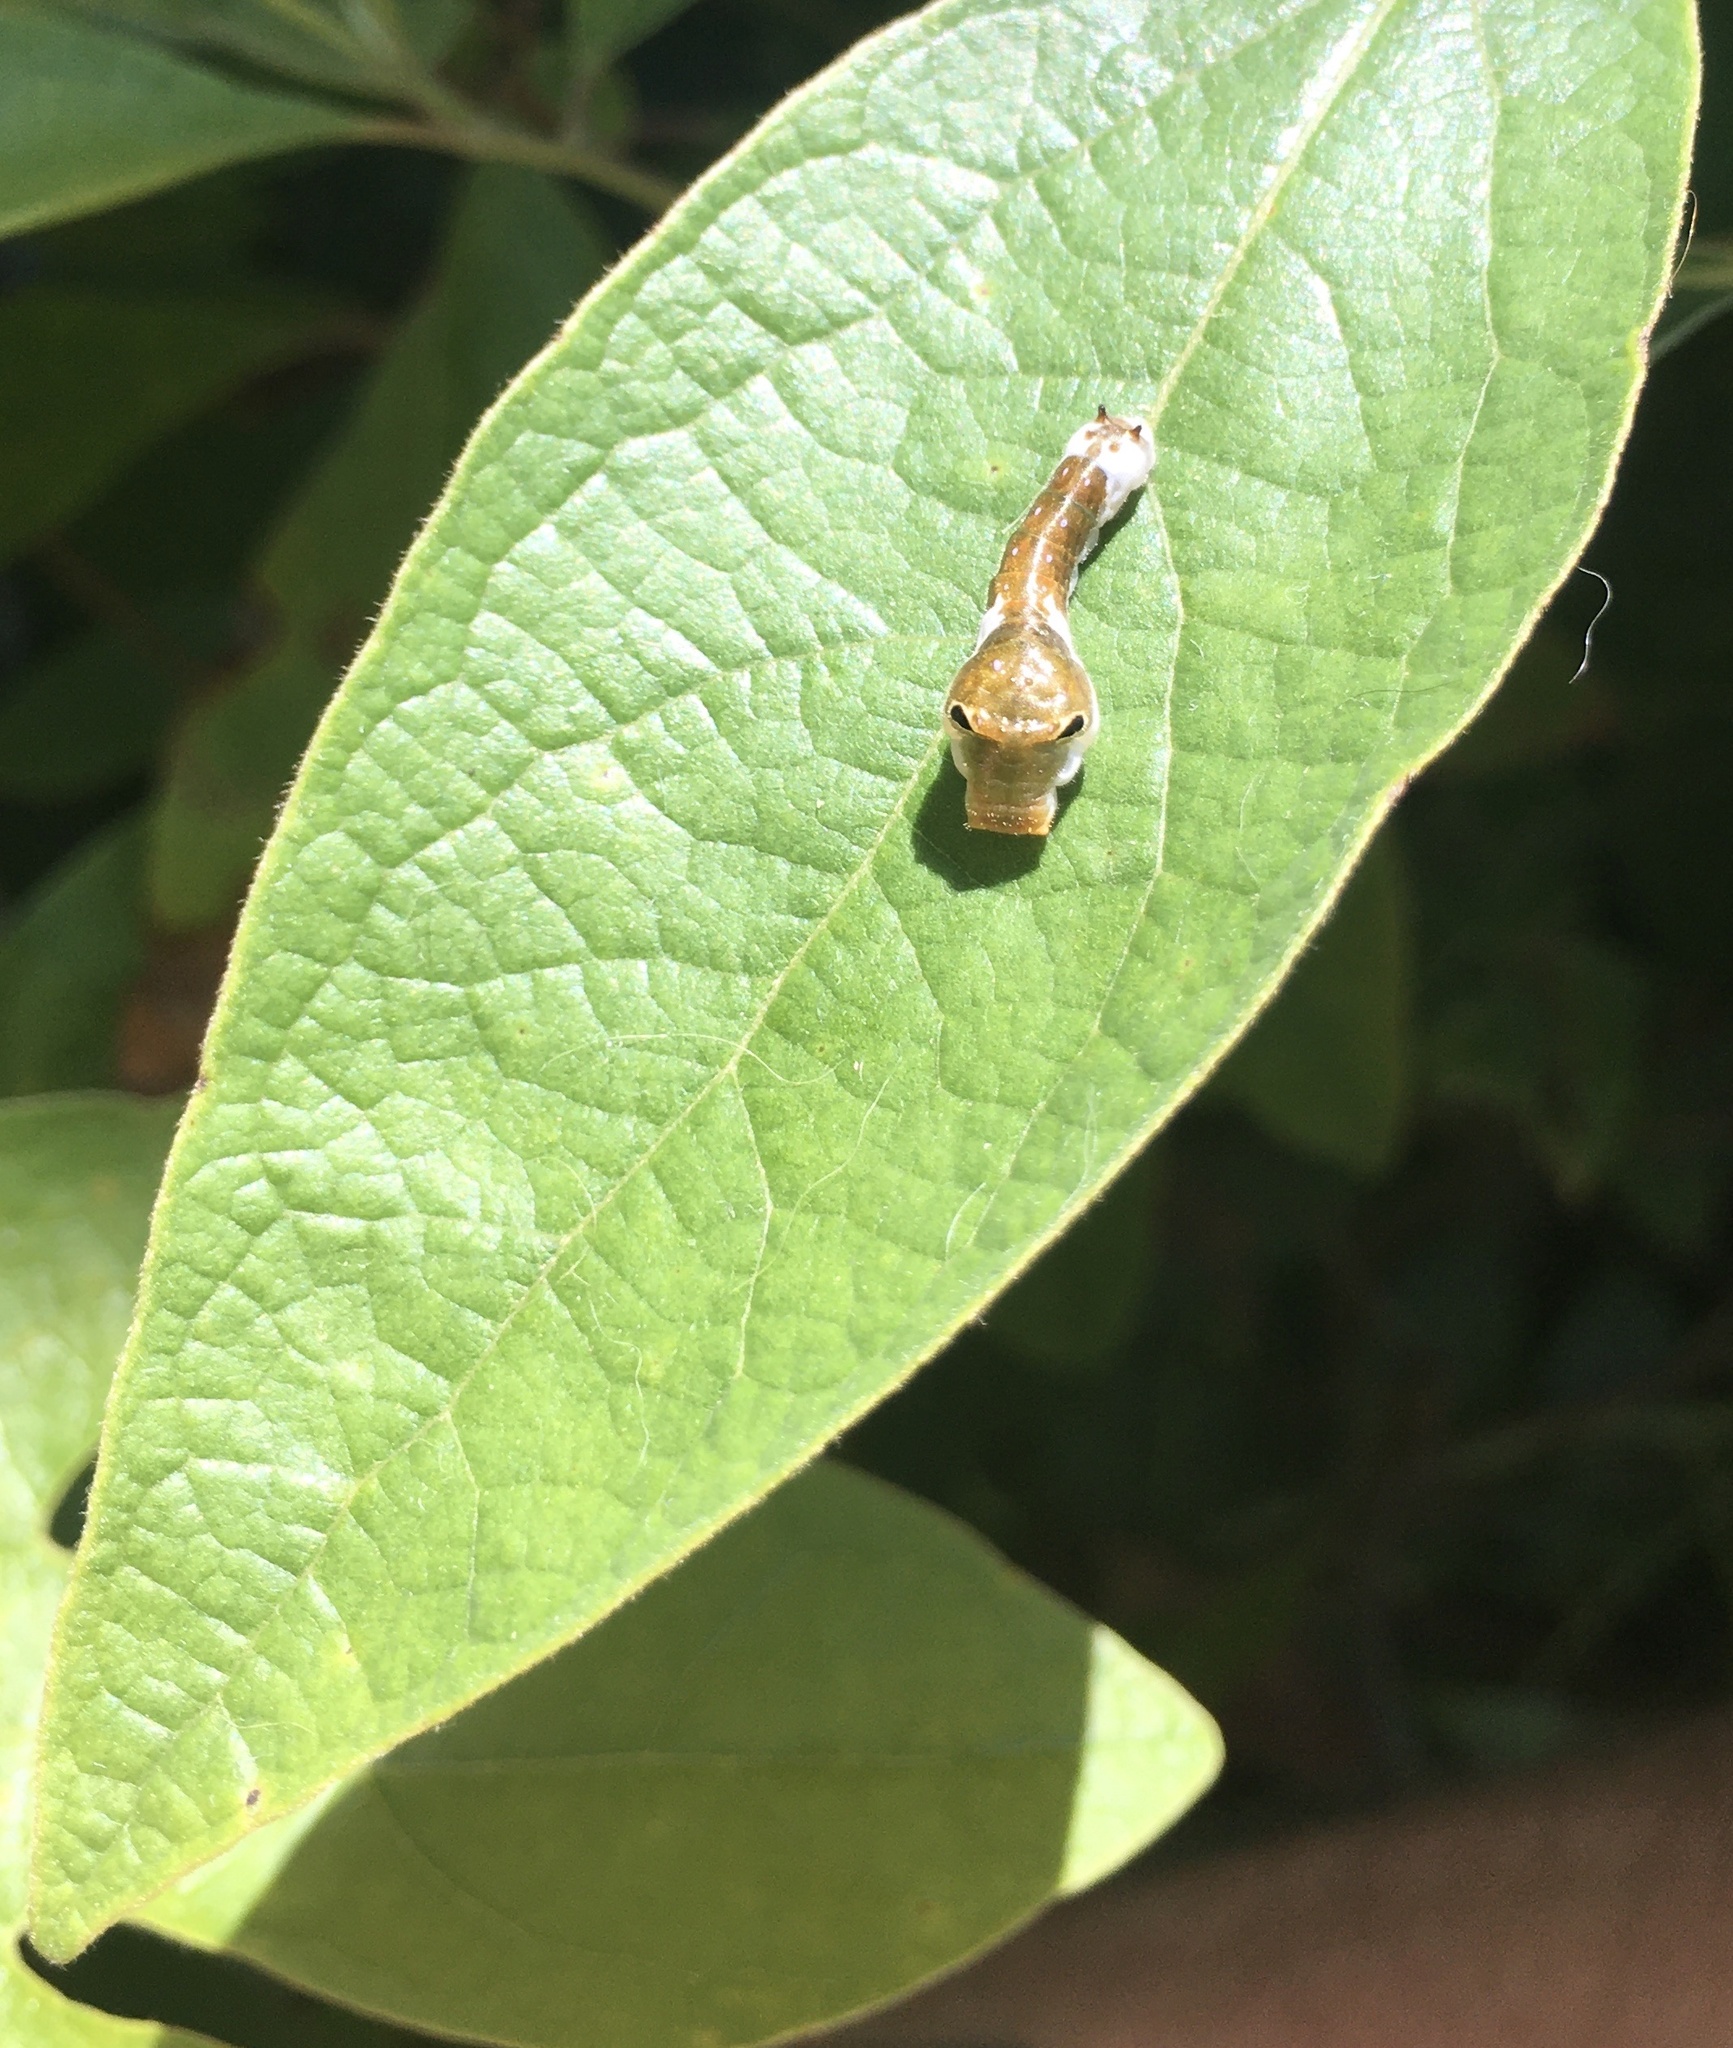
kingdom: Animalia
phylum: Arthropoda
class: Insecta
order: Lepidoptera
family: Papilionidae
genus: Papilio
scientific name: Papilio troilus
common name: Spicebush swallowtail
